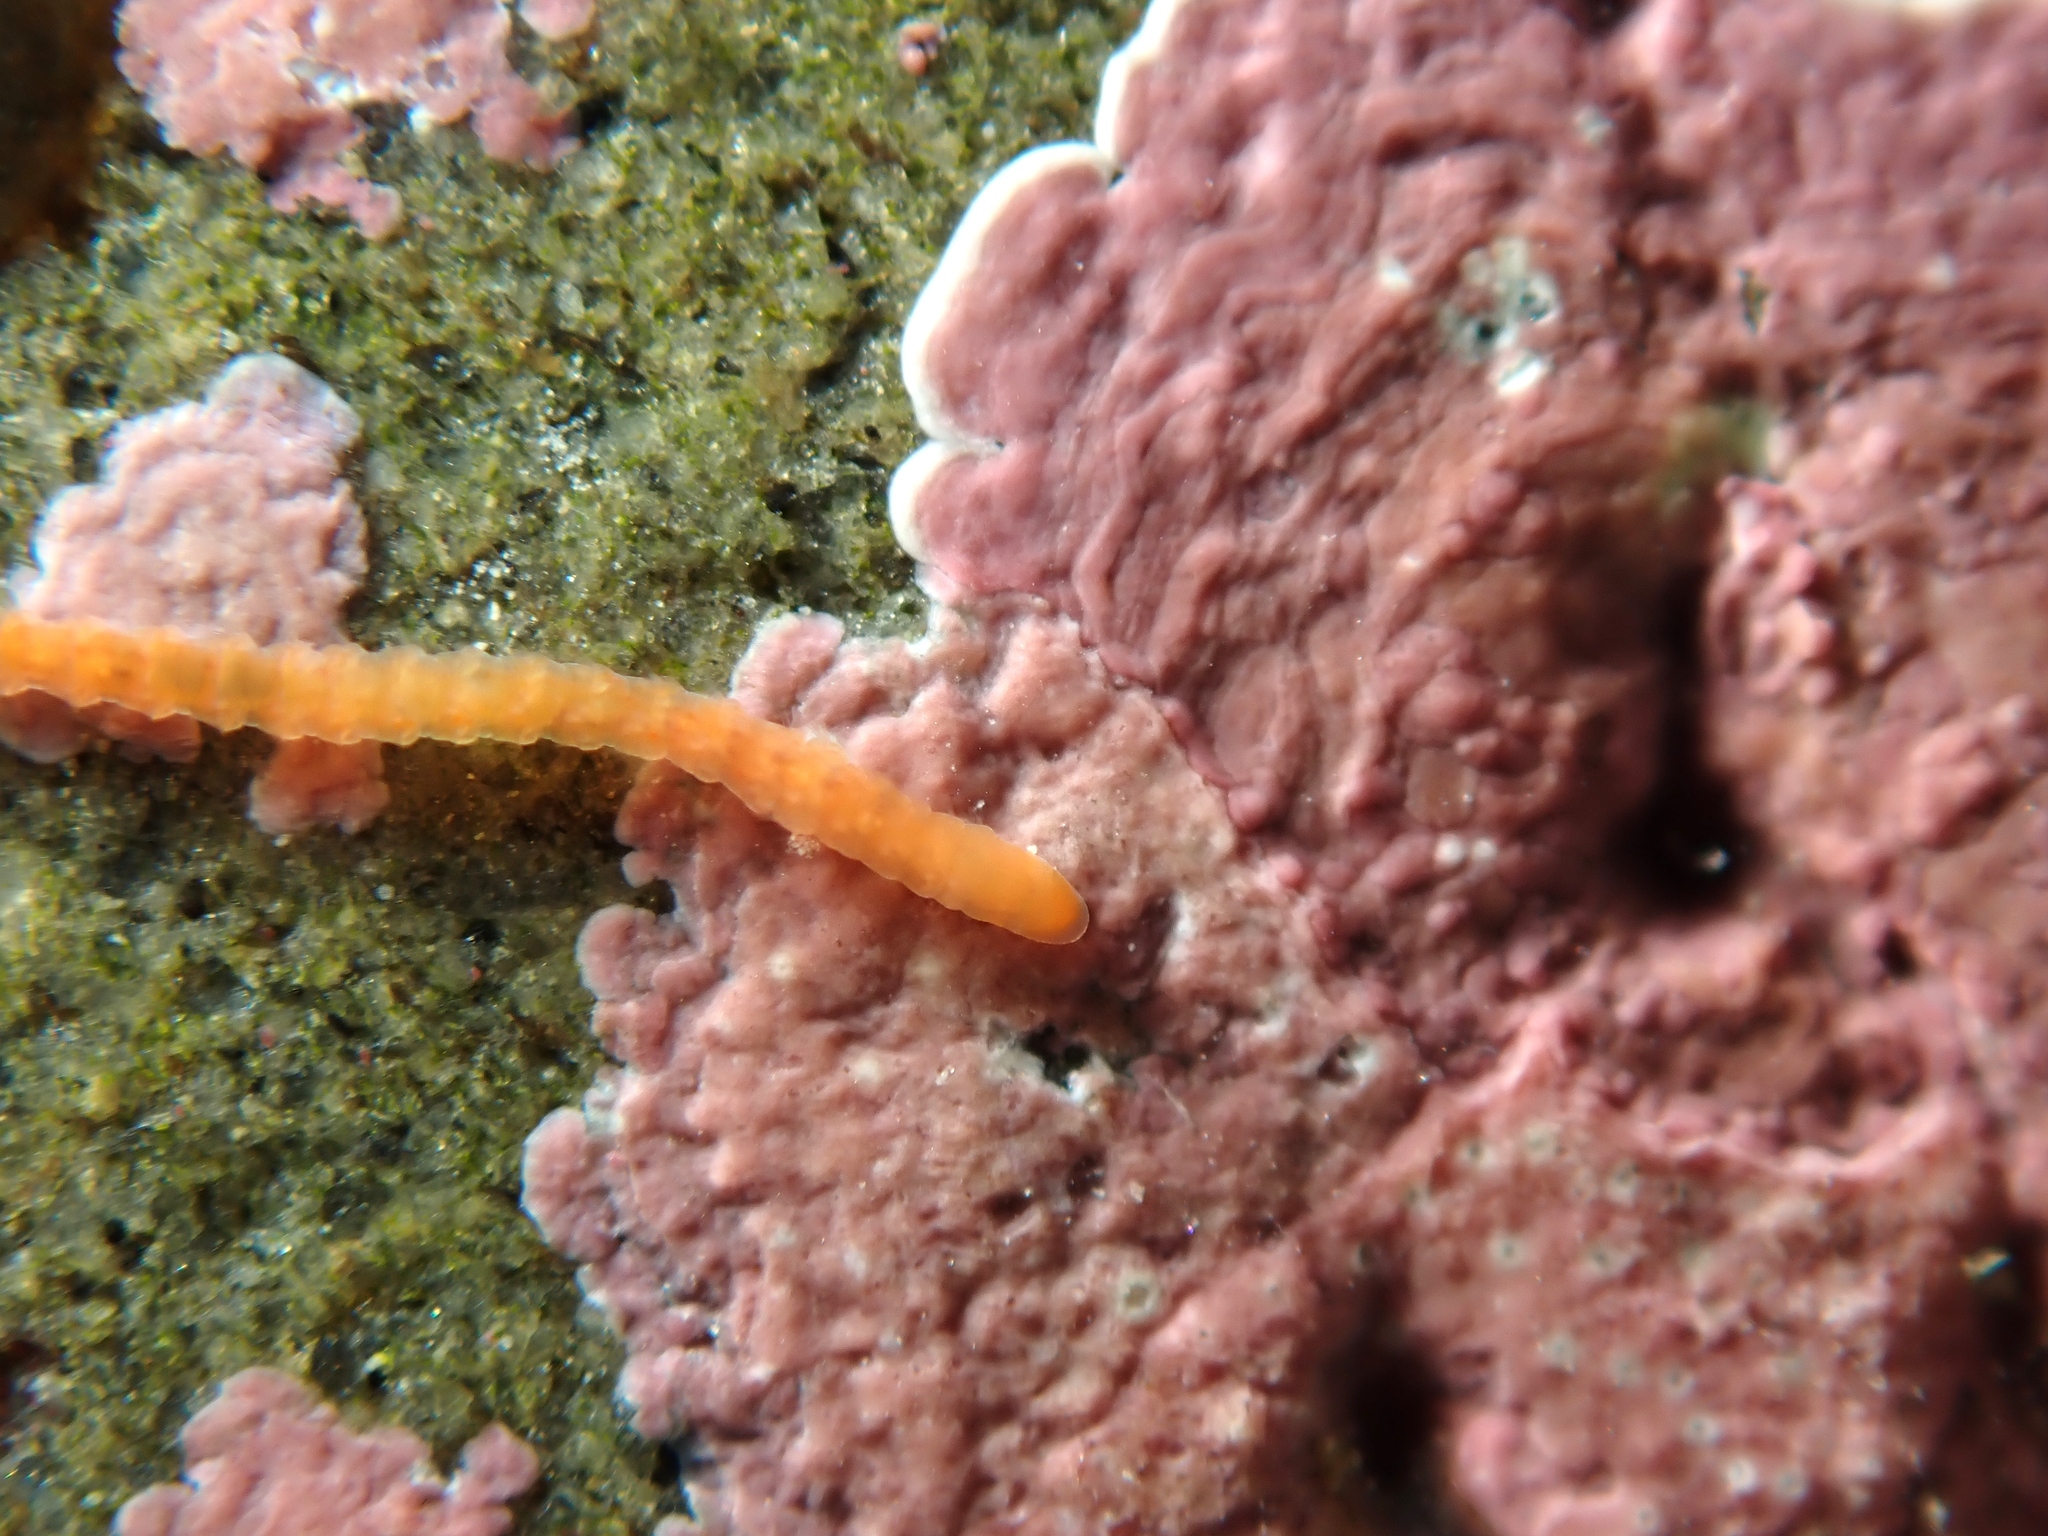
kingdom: Animalia
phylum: Annelida
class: Polychaeta
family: Orbiniidae
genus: Proscoloplos
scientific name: Proscoloplos cygnochaetus
